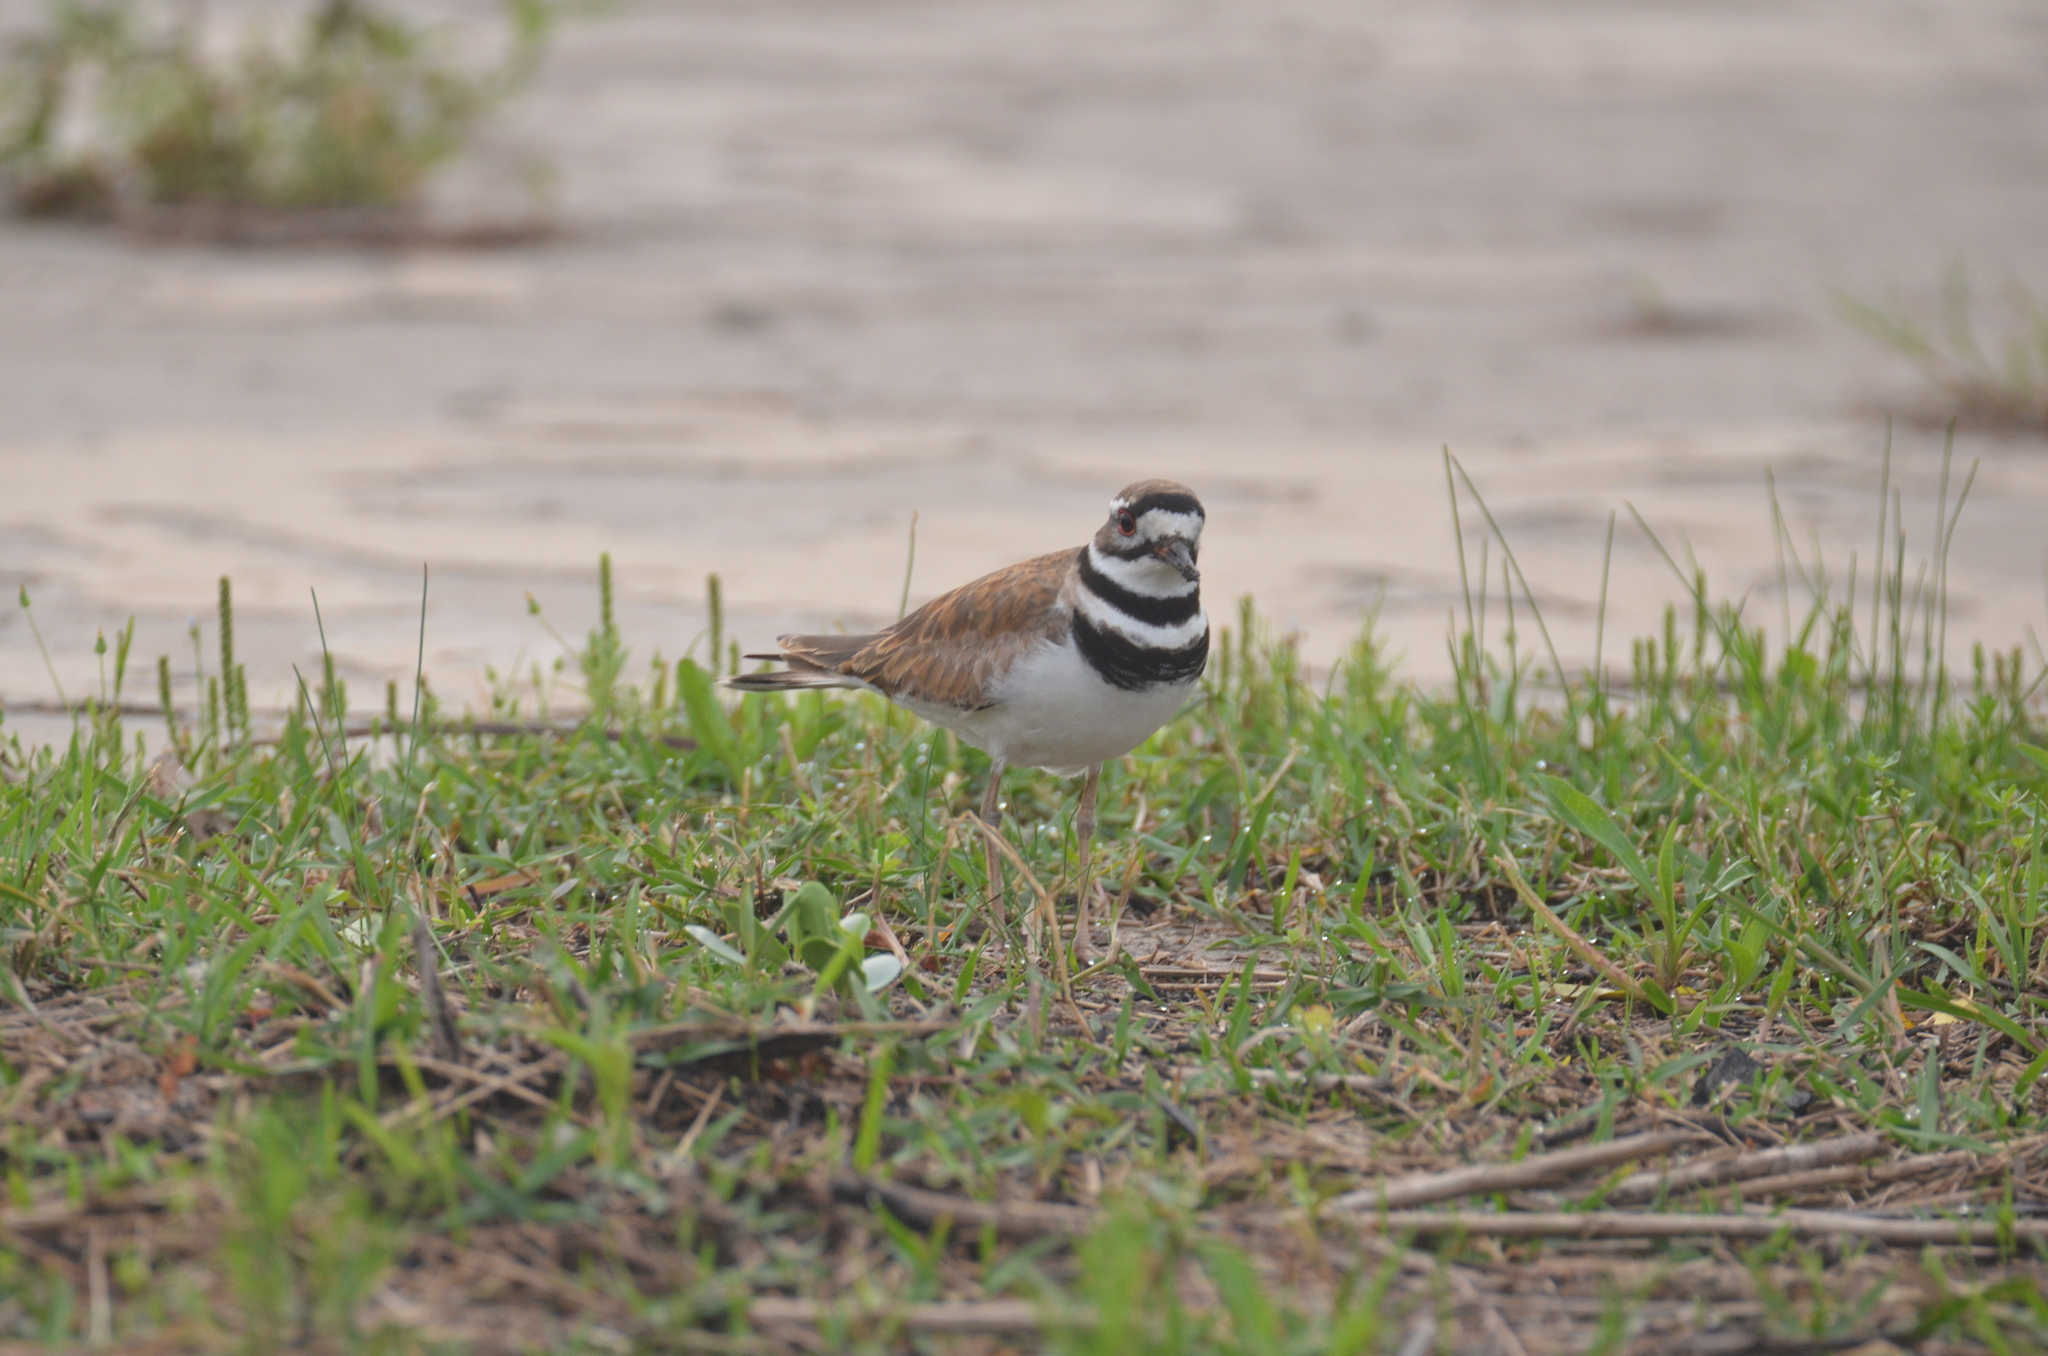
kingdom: Animalia
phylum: Chordata
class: Aves
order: Charadriiformes
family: Charadriidae
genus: Charadrius
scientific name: Charadrius vociferus
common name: Killdeer
